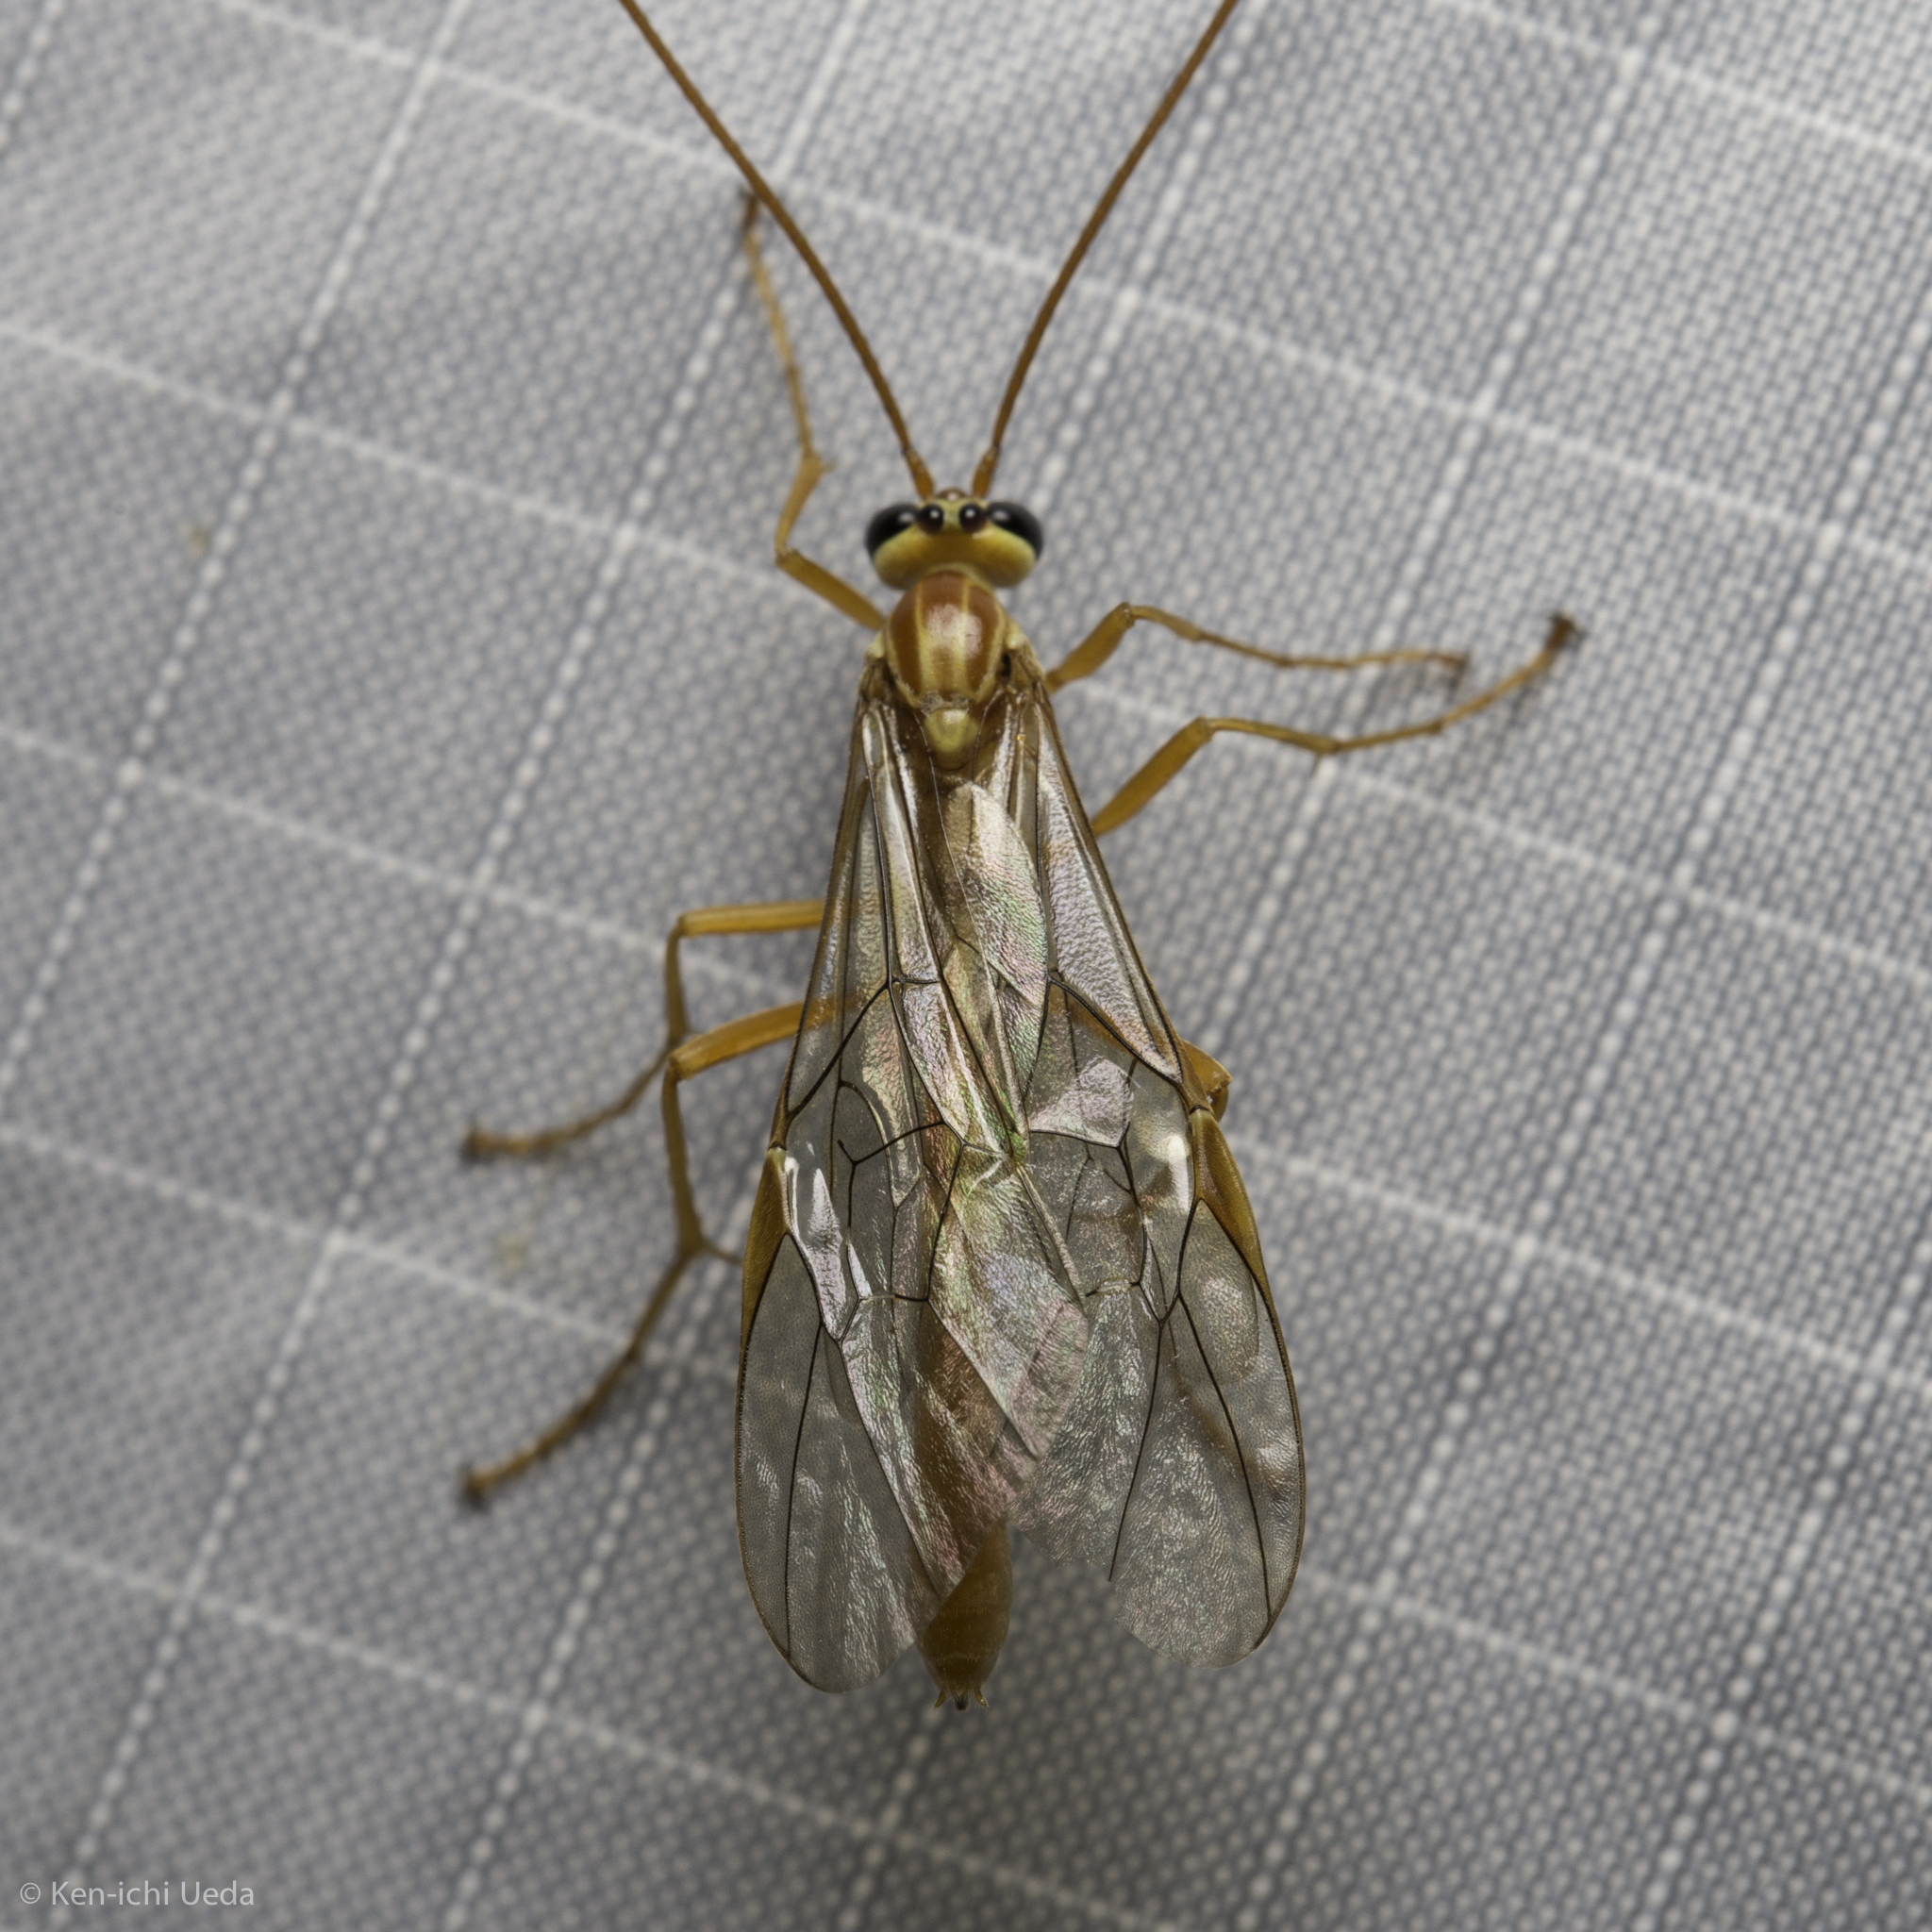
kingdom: Animalia
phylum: Arthropoda
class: Insecta
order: Hymenoptera
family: Ichneumonidae
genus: Ophion
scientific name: Ophion
